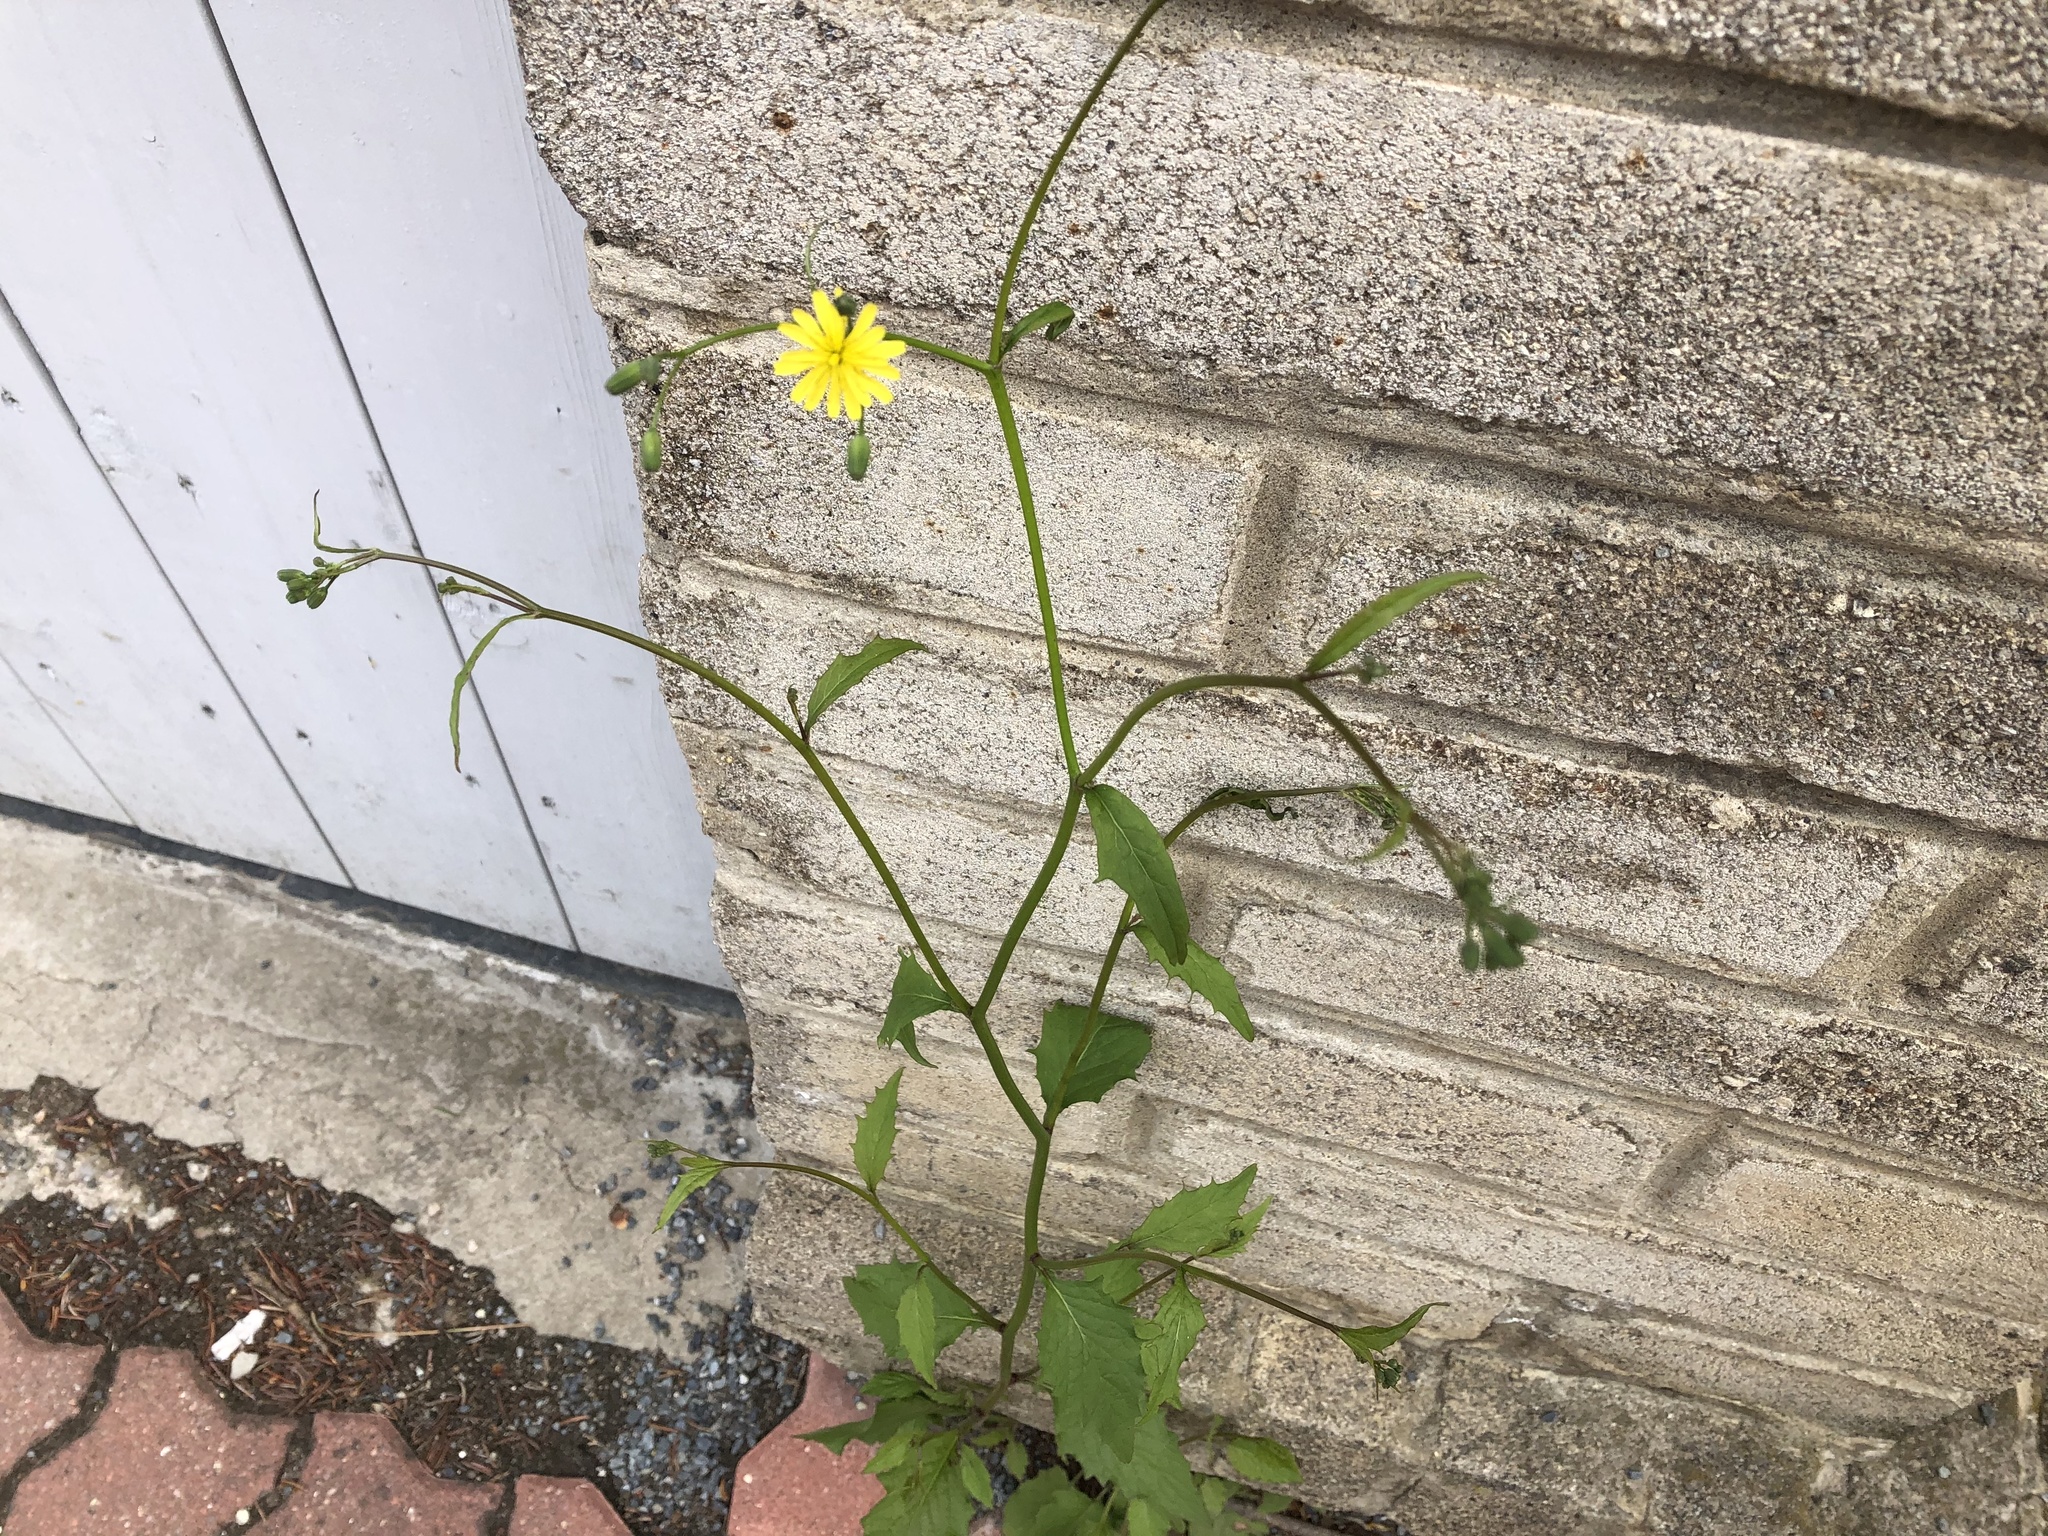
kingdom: Plantae
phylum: Tracheophyta
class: Magnoliopsida
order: Asterales
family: Asteraceae
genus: Lapsana
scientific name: Lapsana communis
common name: Nipplewort
